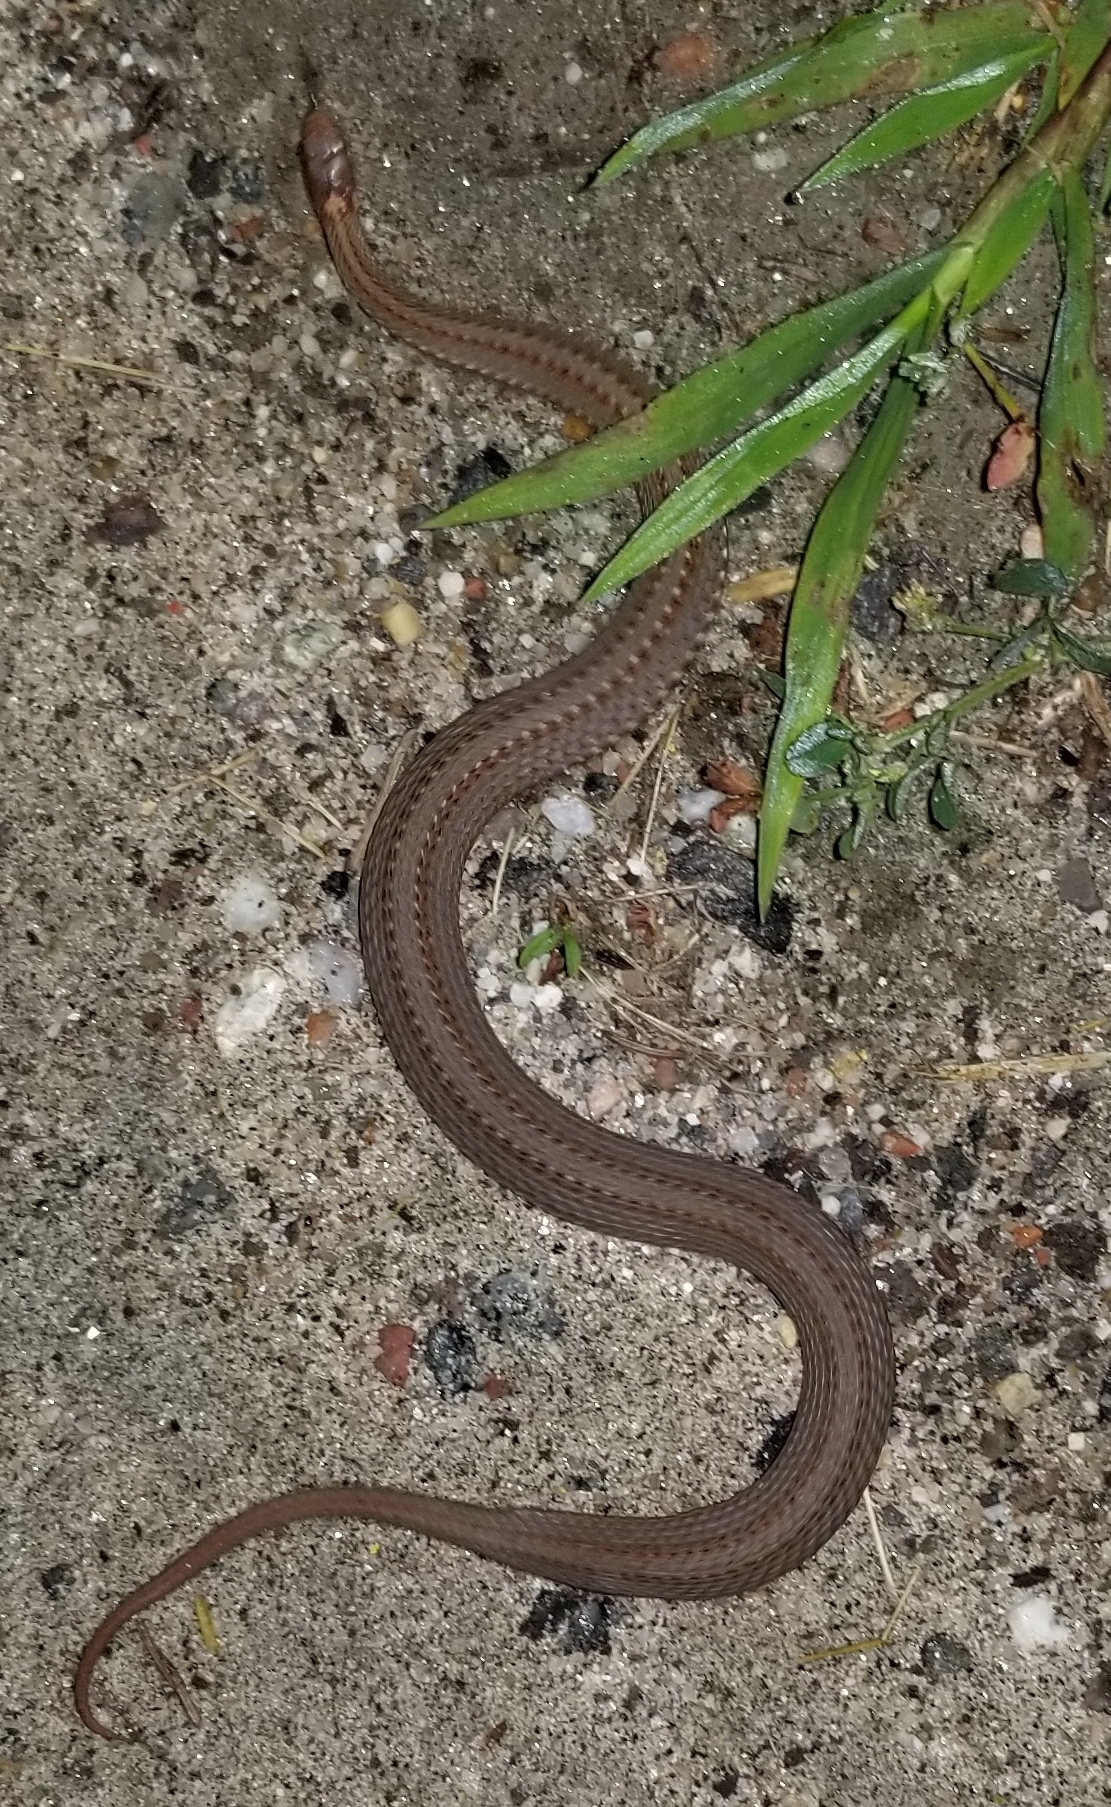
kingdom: Animalia
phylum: Chordata
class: Squamata
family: Colubridae
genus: Storeria
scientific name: Storeria occipitomaculata
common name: Redbelly snake
